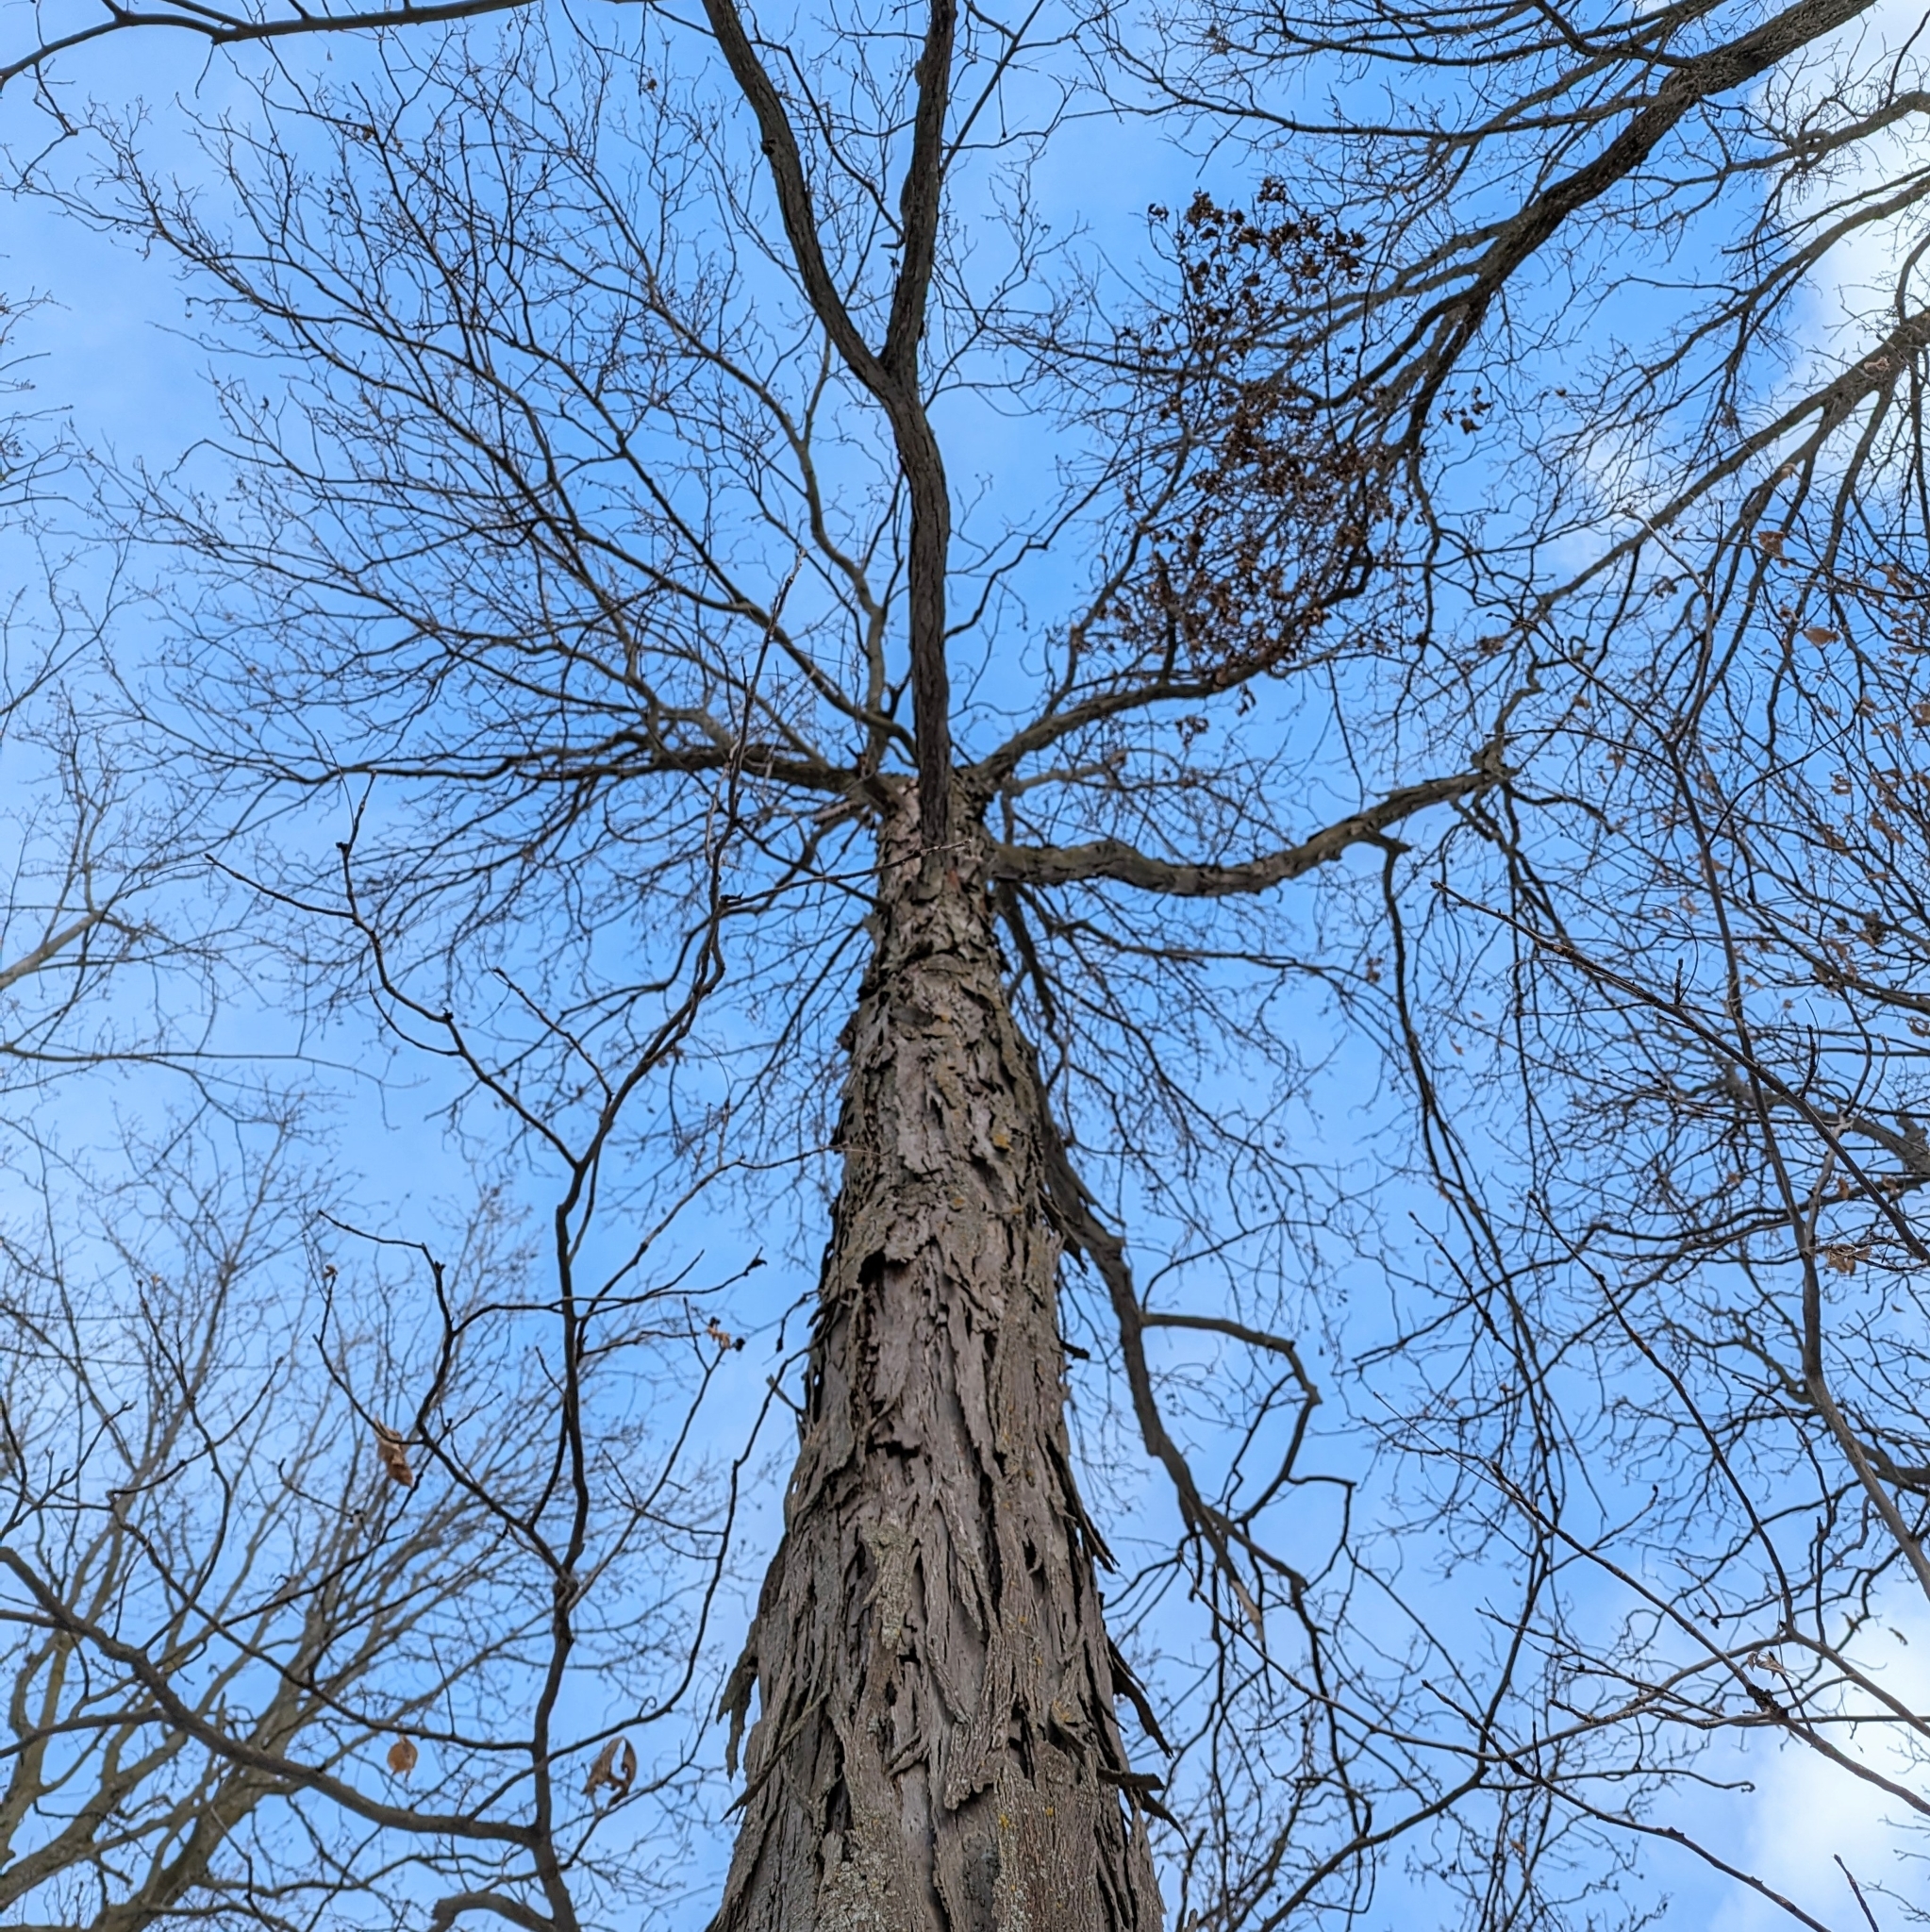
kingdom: Plantae
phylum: Tracheophyta
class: Magnoliopsida
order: Fagales
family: Juglandaceae
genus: Carya
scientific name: Carya ovata
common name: Shagbark hickory
